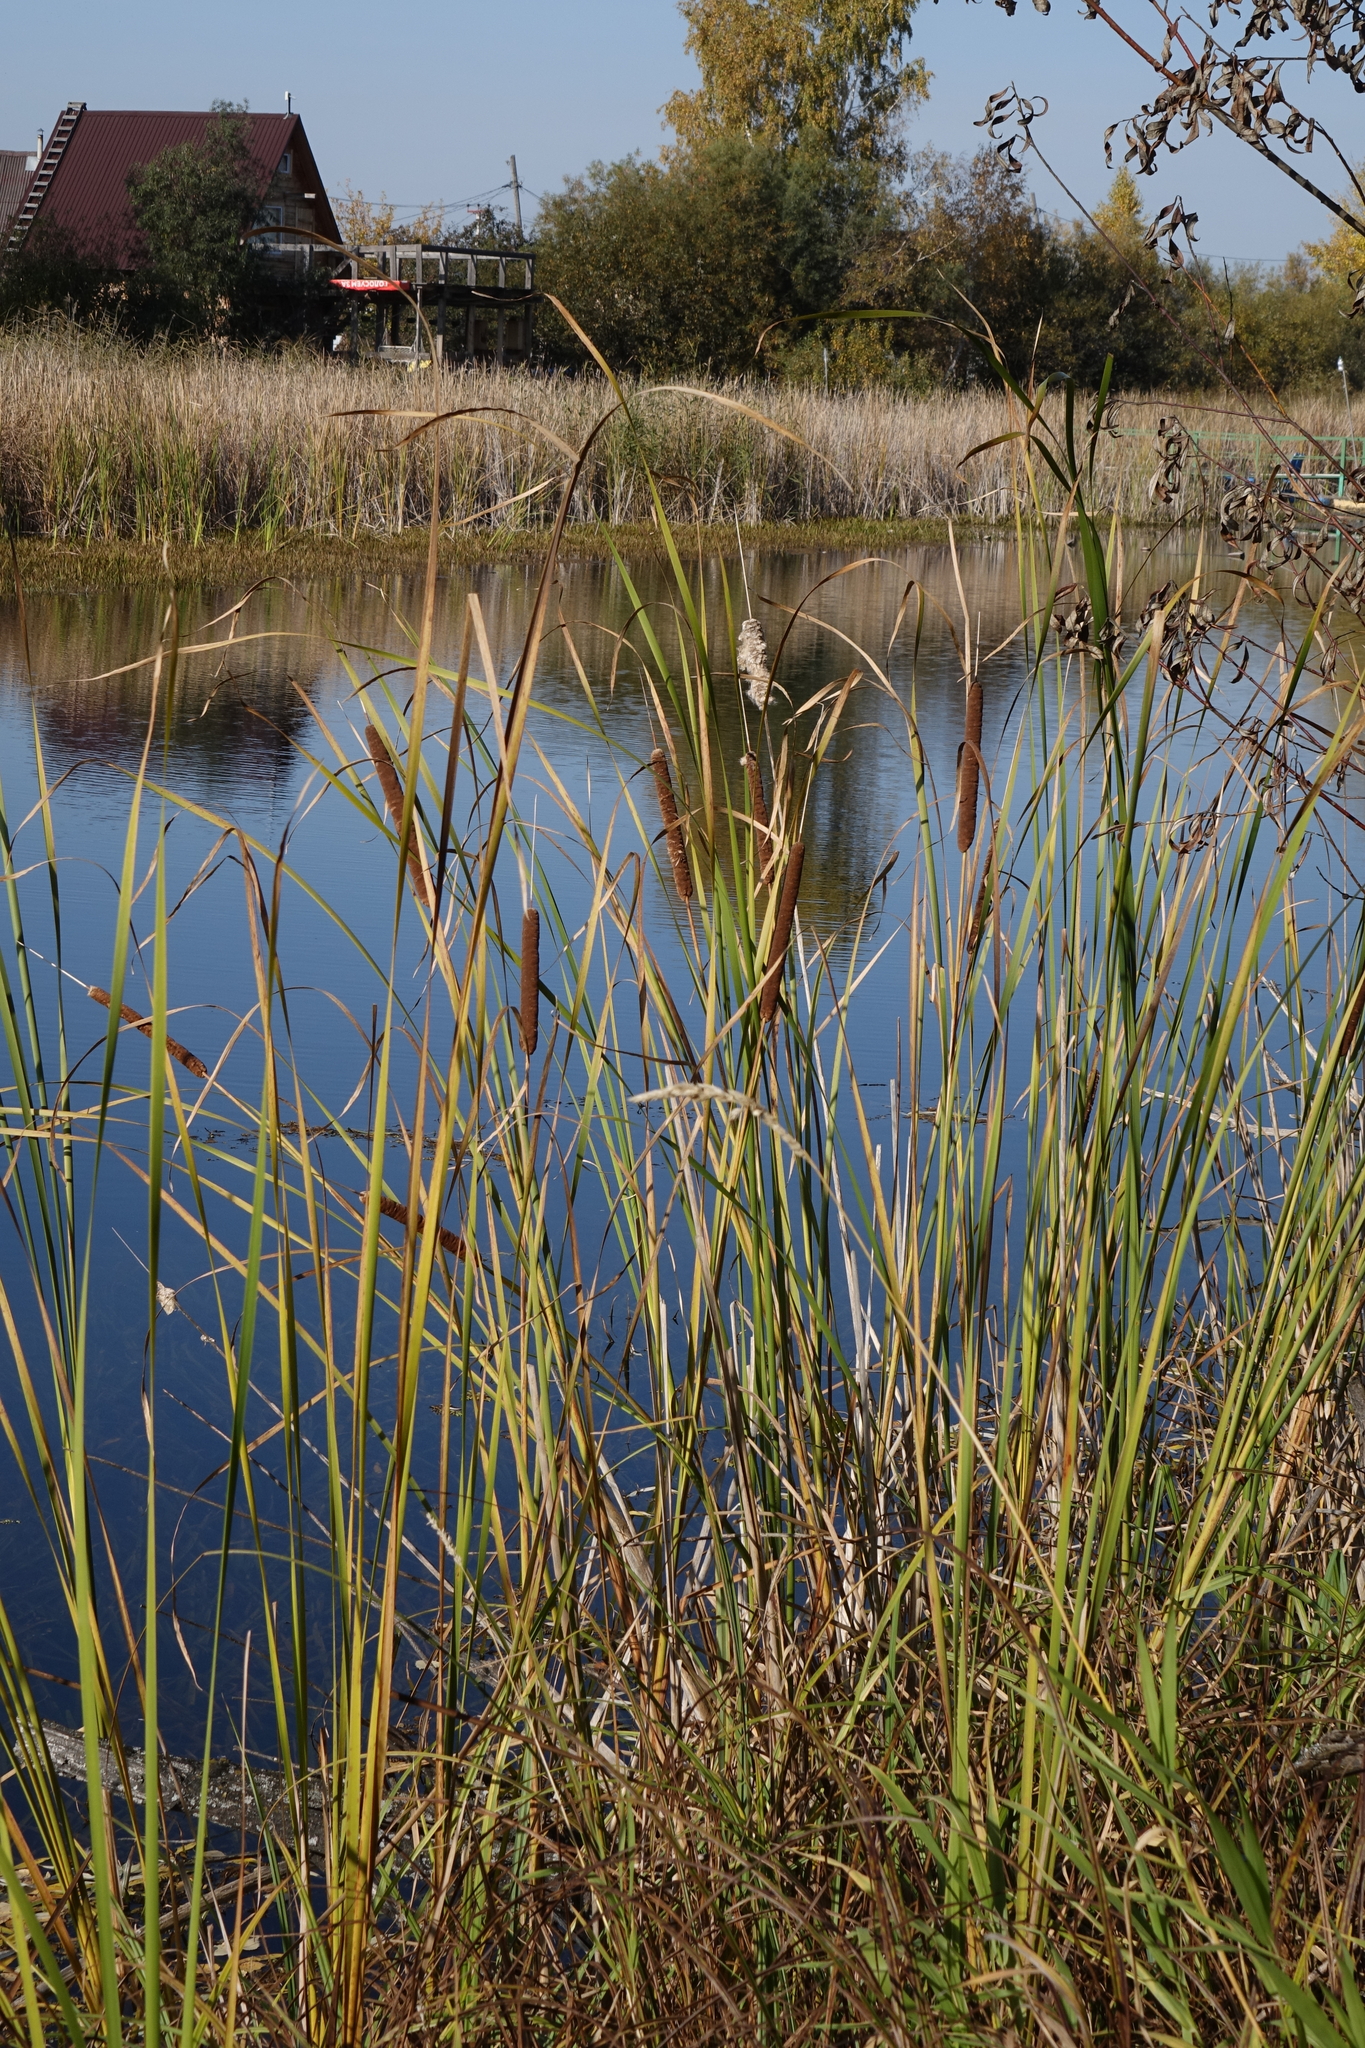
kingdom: Plantae
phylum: Tracheophyta
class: Liliopsida
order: Poales
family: Typhaceae
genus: Typha
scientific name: Typha angustifolia
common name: Lesser bulrush
